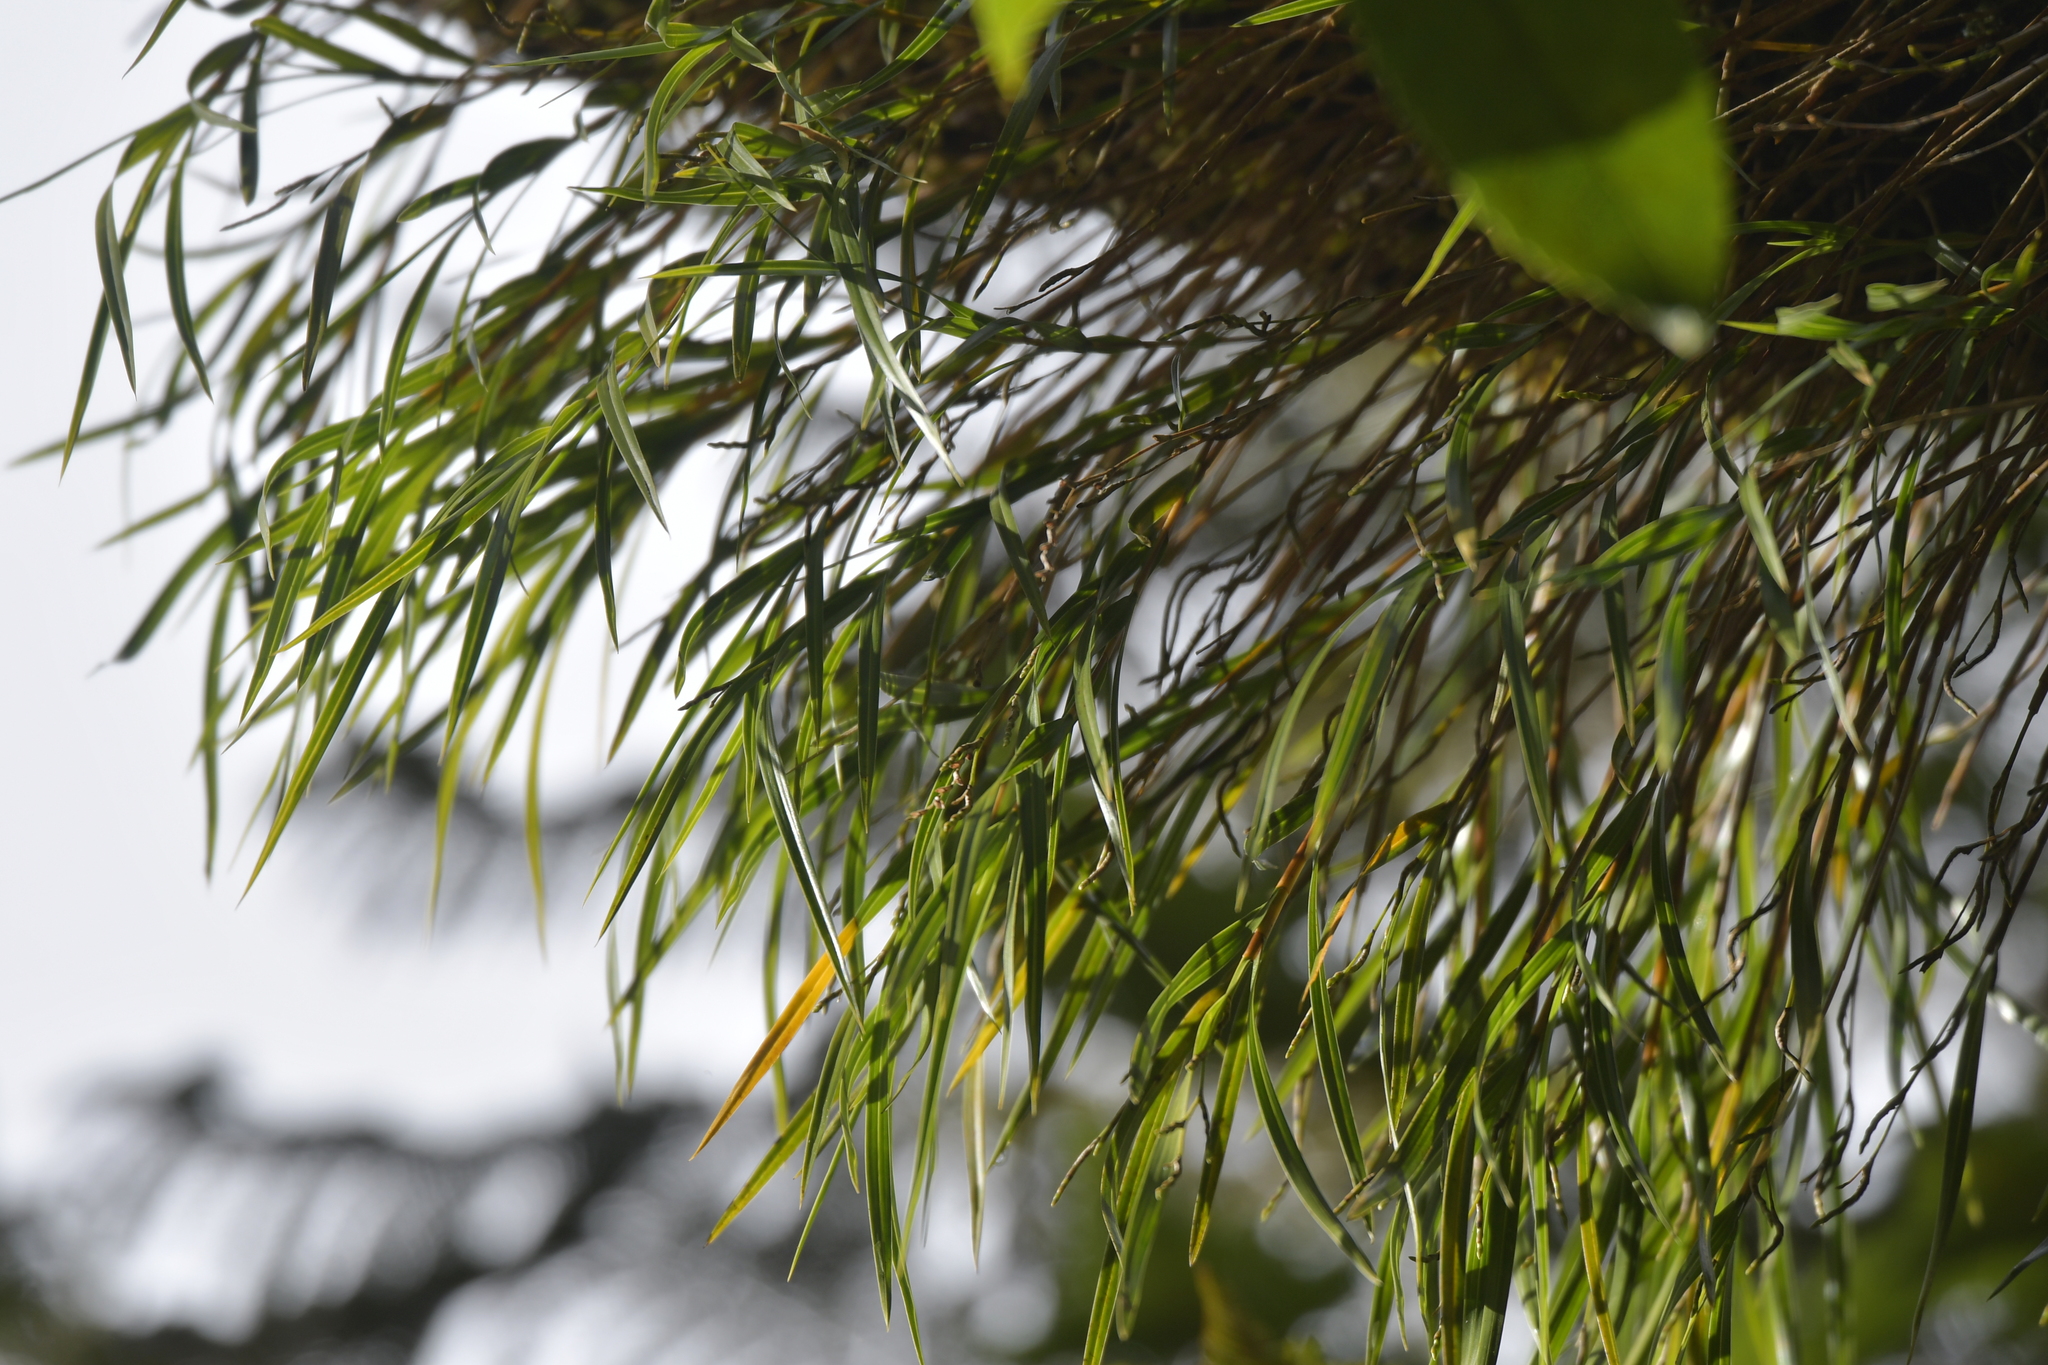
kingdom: Plantae
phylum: Tracheophyta
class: Liliopsida
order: Asparagales
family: Orchidaceae
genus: Earina
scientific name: Earina mucronata
